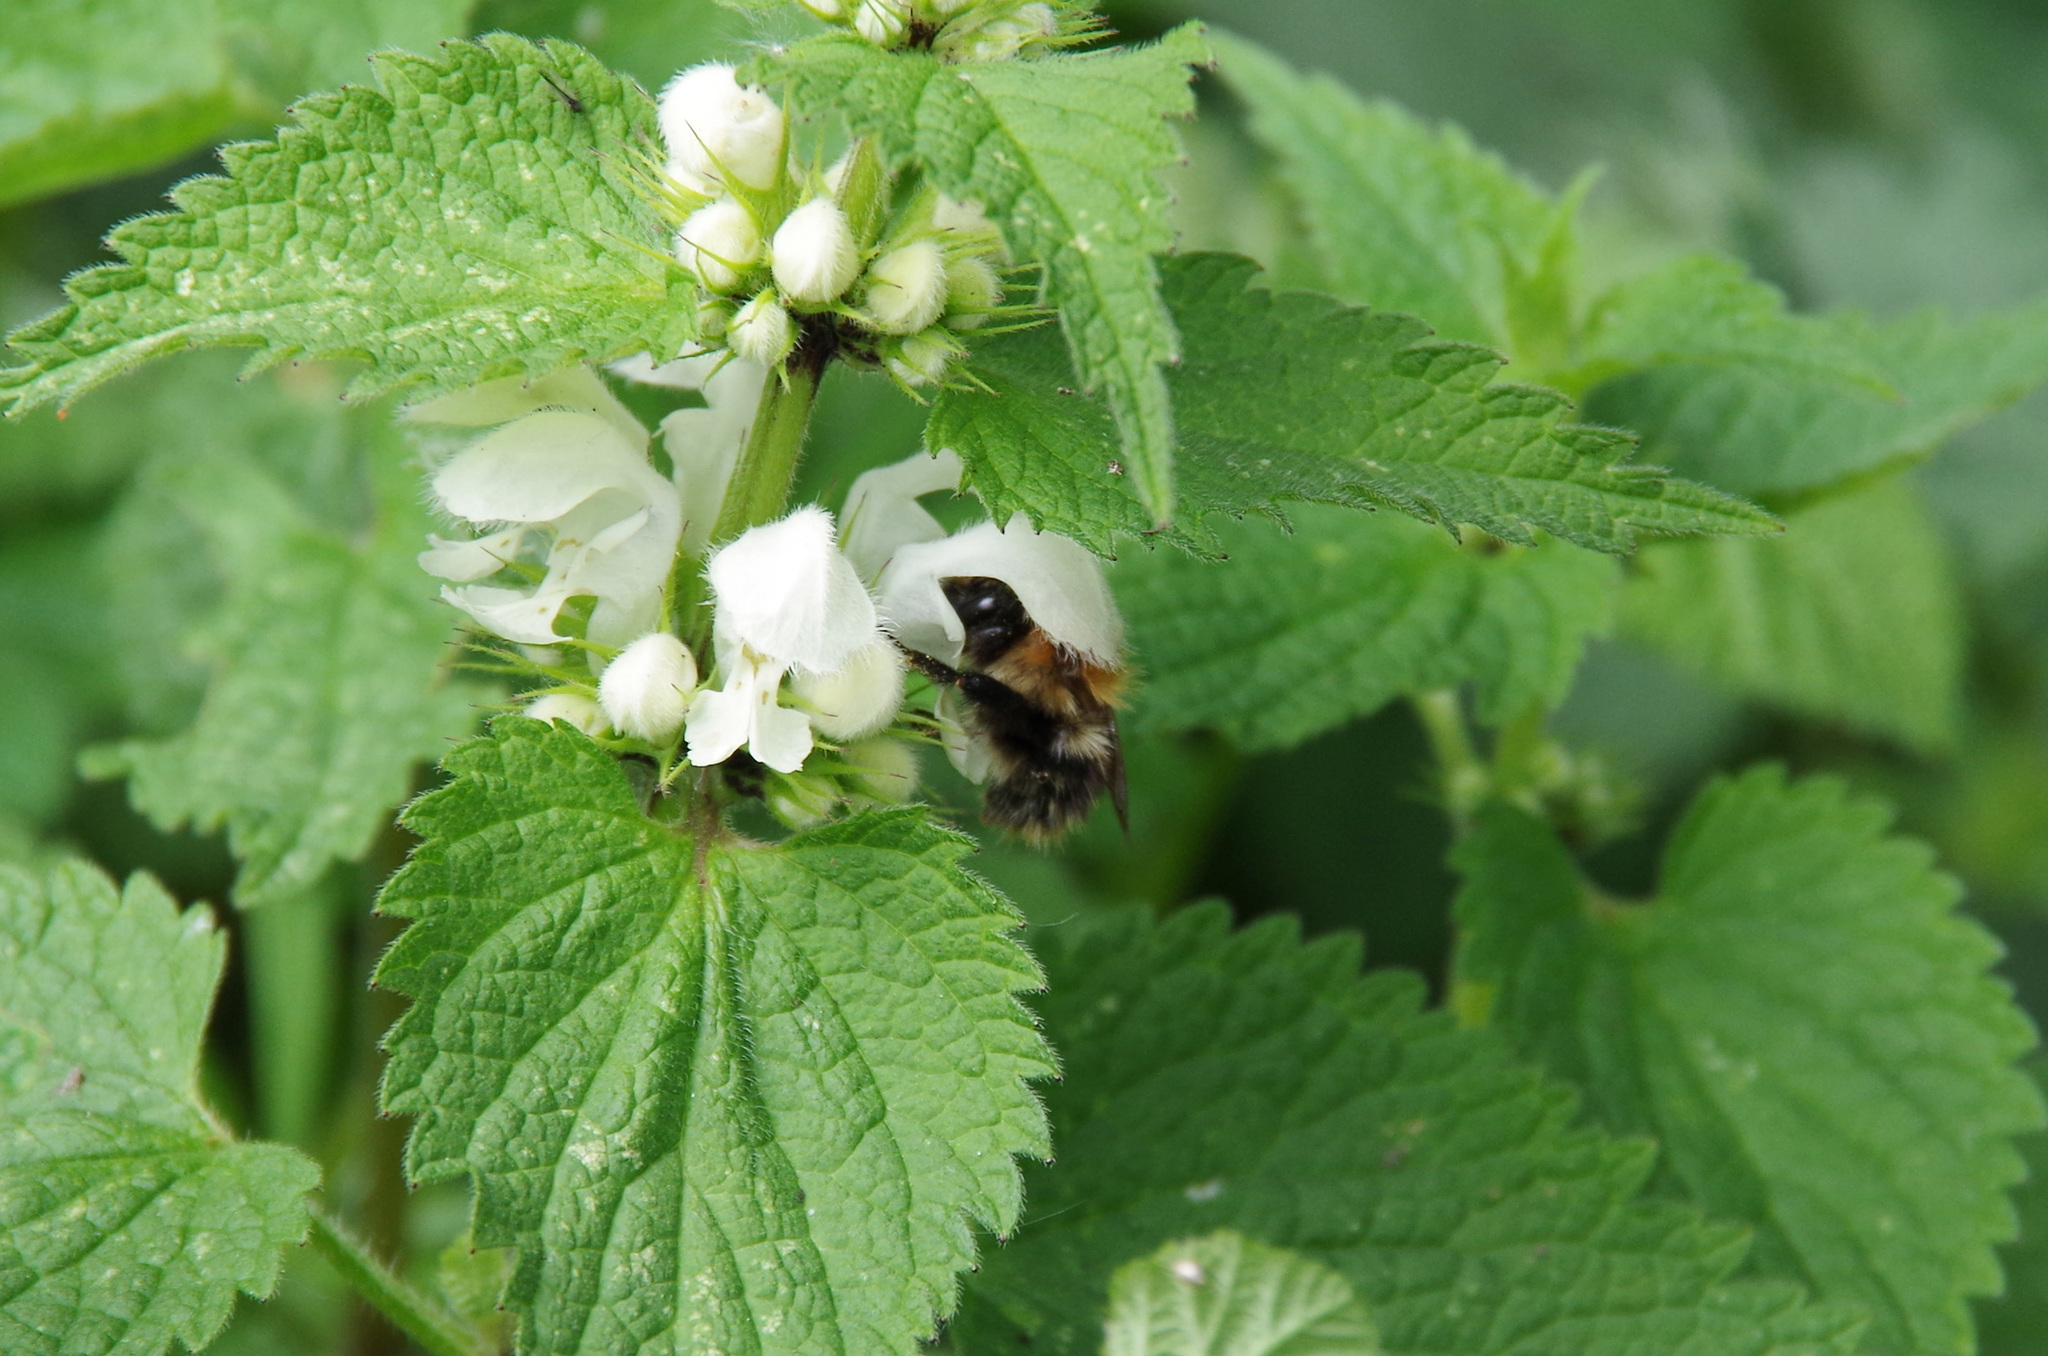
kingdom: Animalia
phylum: Arthropoda
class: Insecta
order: Hymenoptera
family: Apidae
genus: Bombus
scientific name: Bombus pascuorum
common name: Common carder bee
